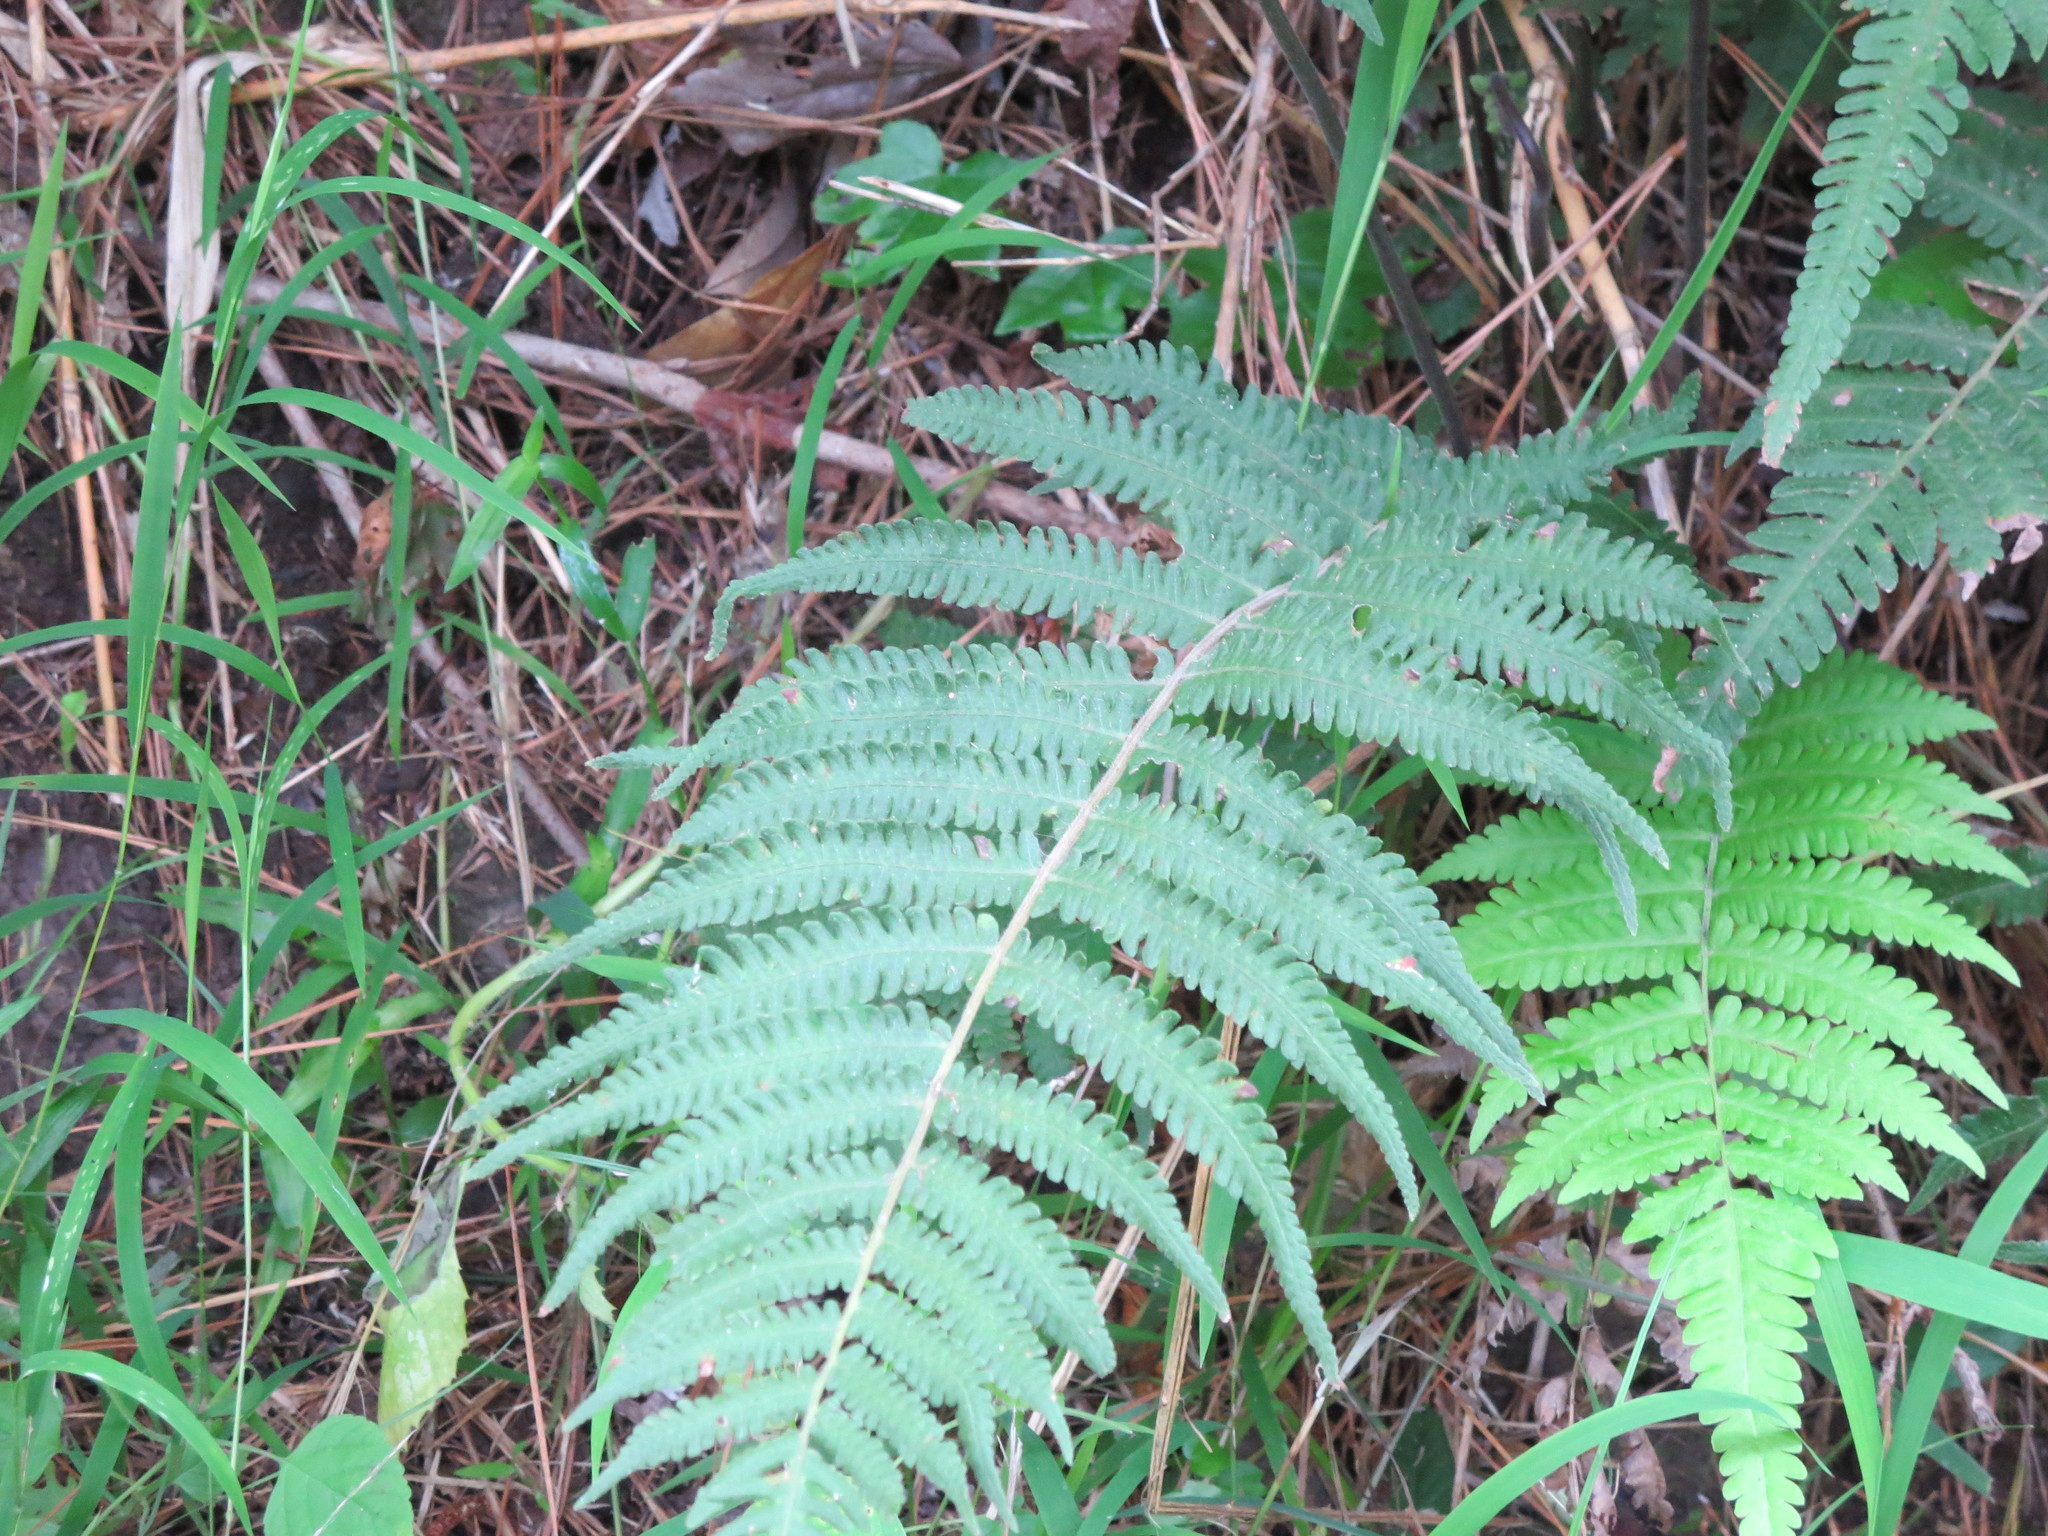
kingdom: Plantae
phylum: Tracheophyta
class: Polypodiopsida
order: Polypodiales
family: Thelypteridaceae
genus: Christella
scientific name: Christella parasitica
